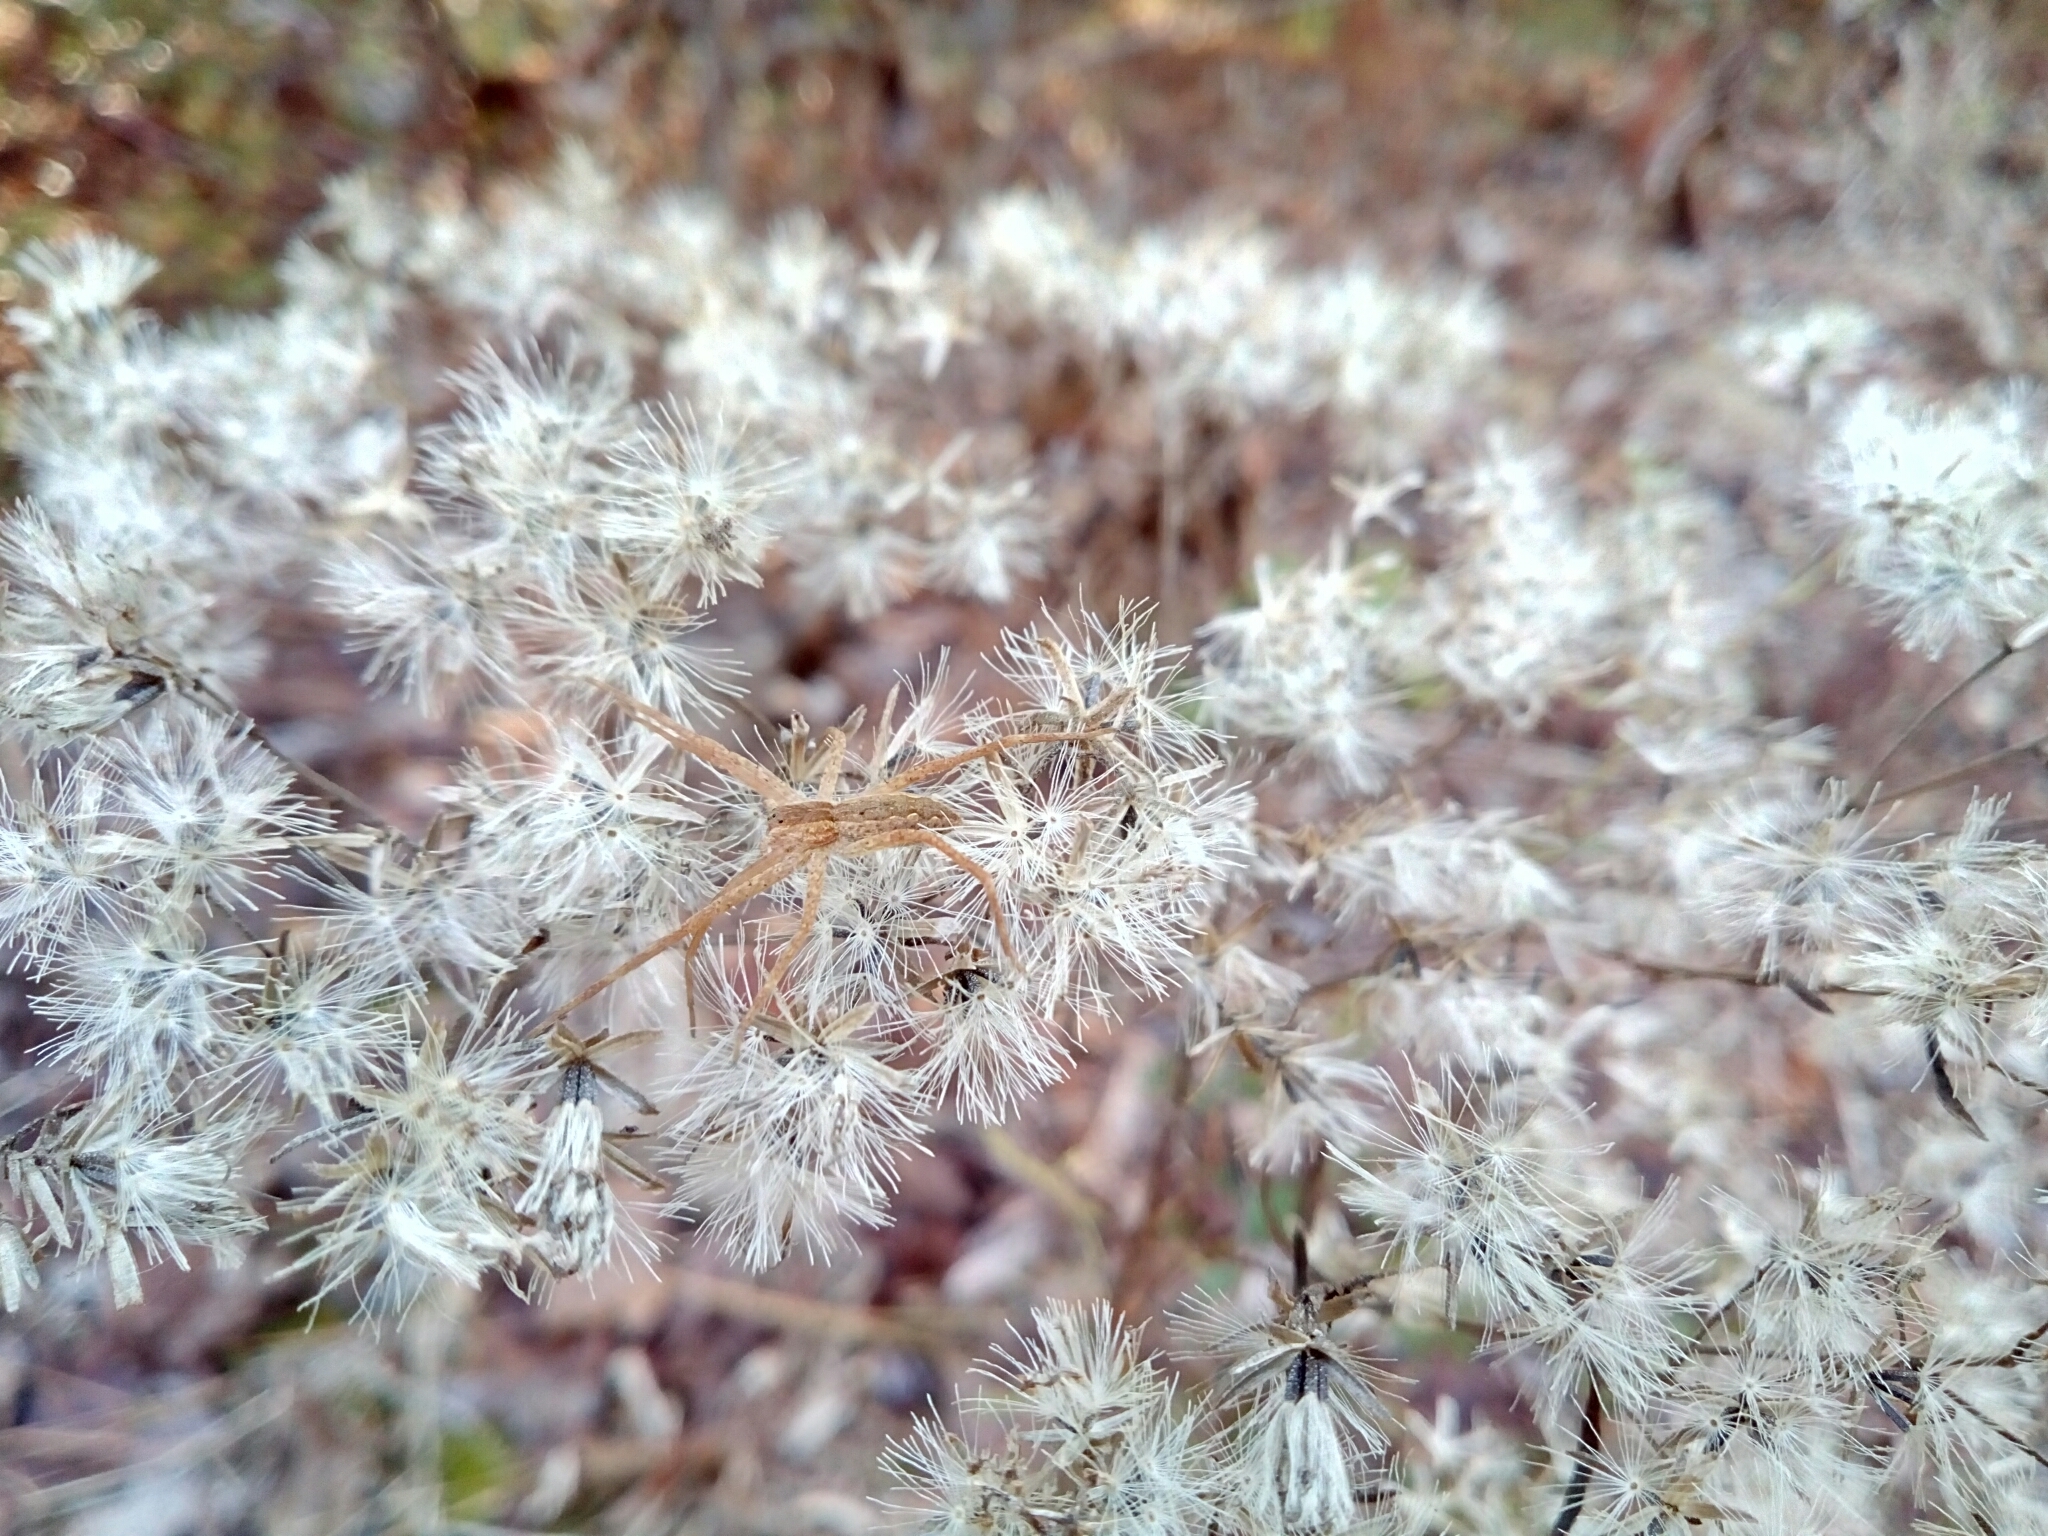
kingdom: Animalia
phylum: Arthropoda
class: Arachnida
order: Araneae
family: Pisauridae
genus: Pisaurina
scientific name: Pisaurina mira
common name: American nursery web spider
